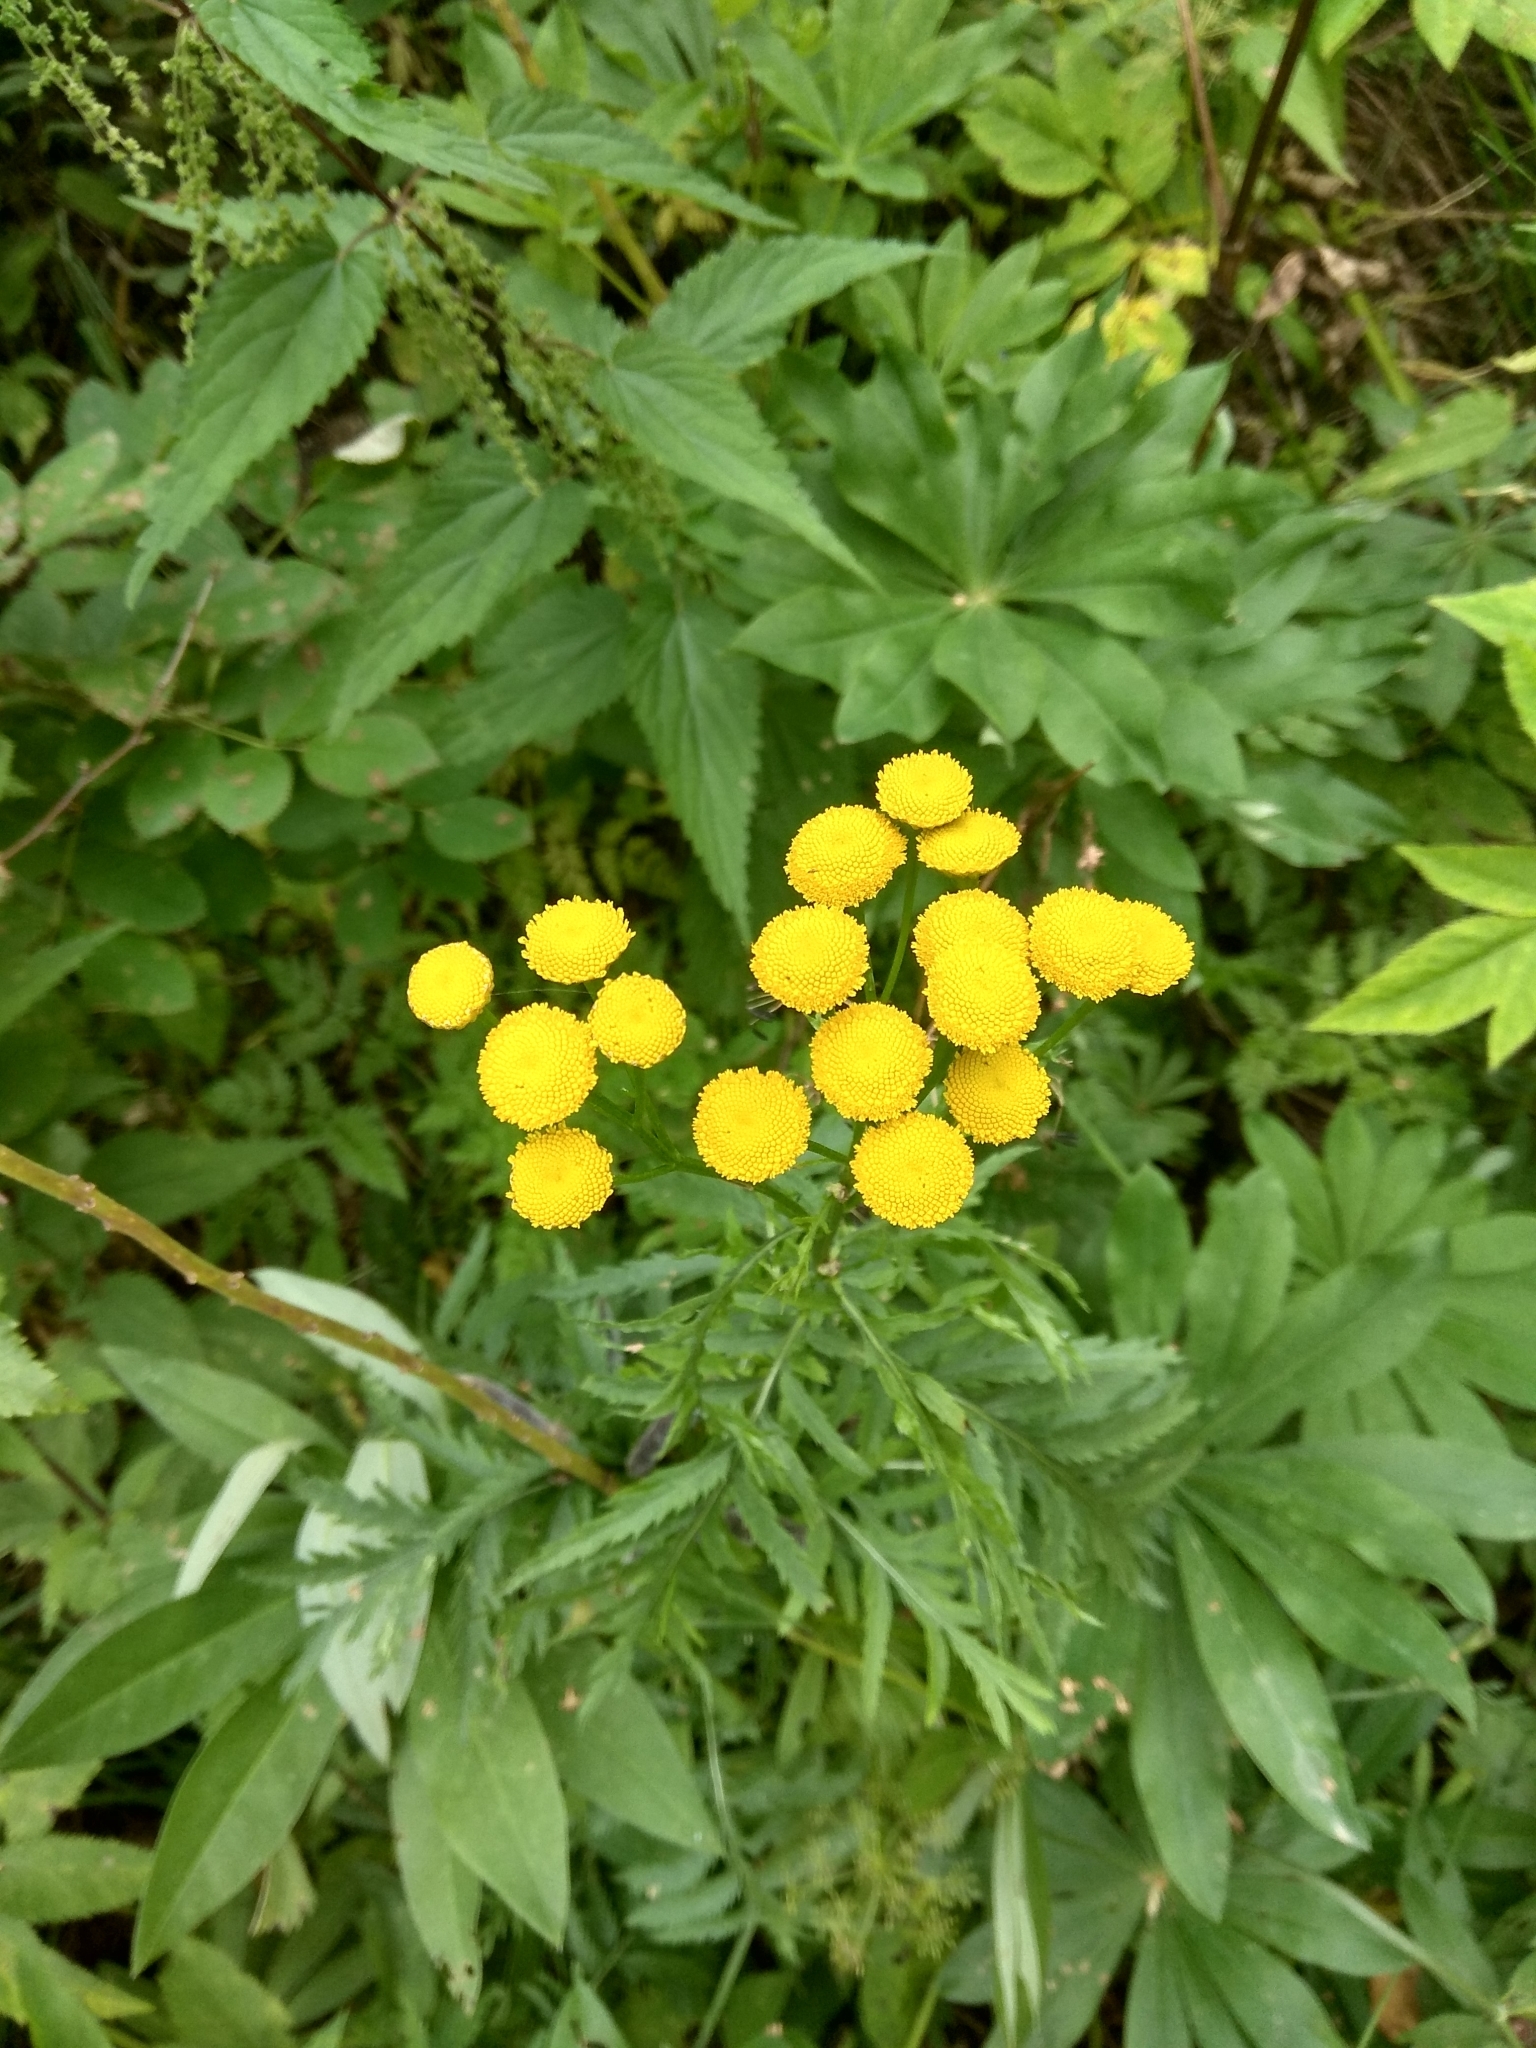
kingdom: Plantae
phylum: Tracheophyta
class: Magnoliopsida
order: Asterales
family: Asteraceae
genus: Tanacetum
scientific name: Tanacetum vulgare
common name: Common tansy
